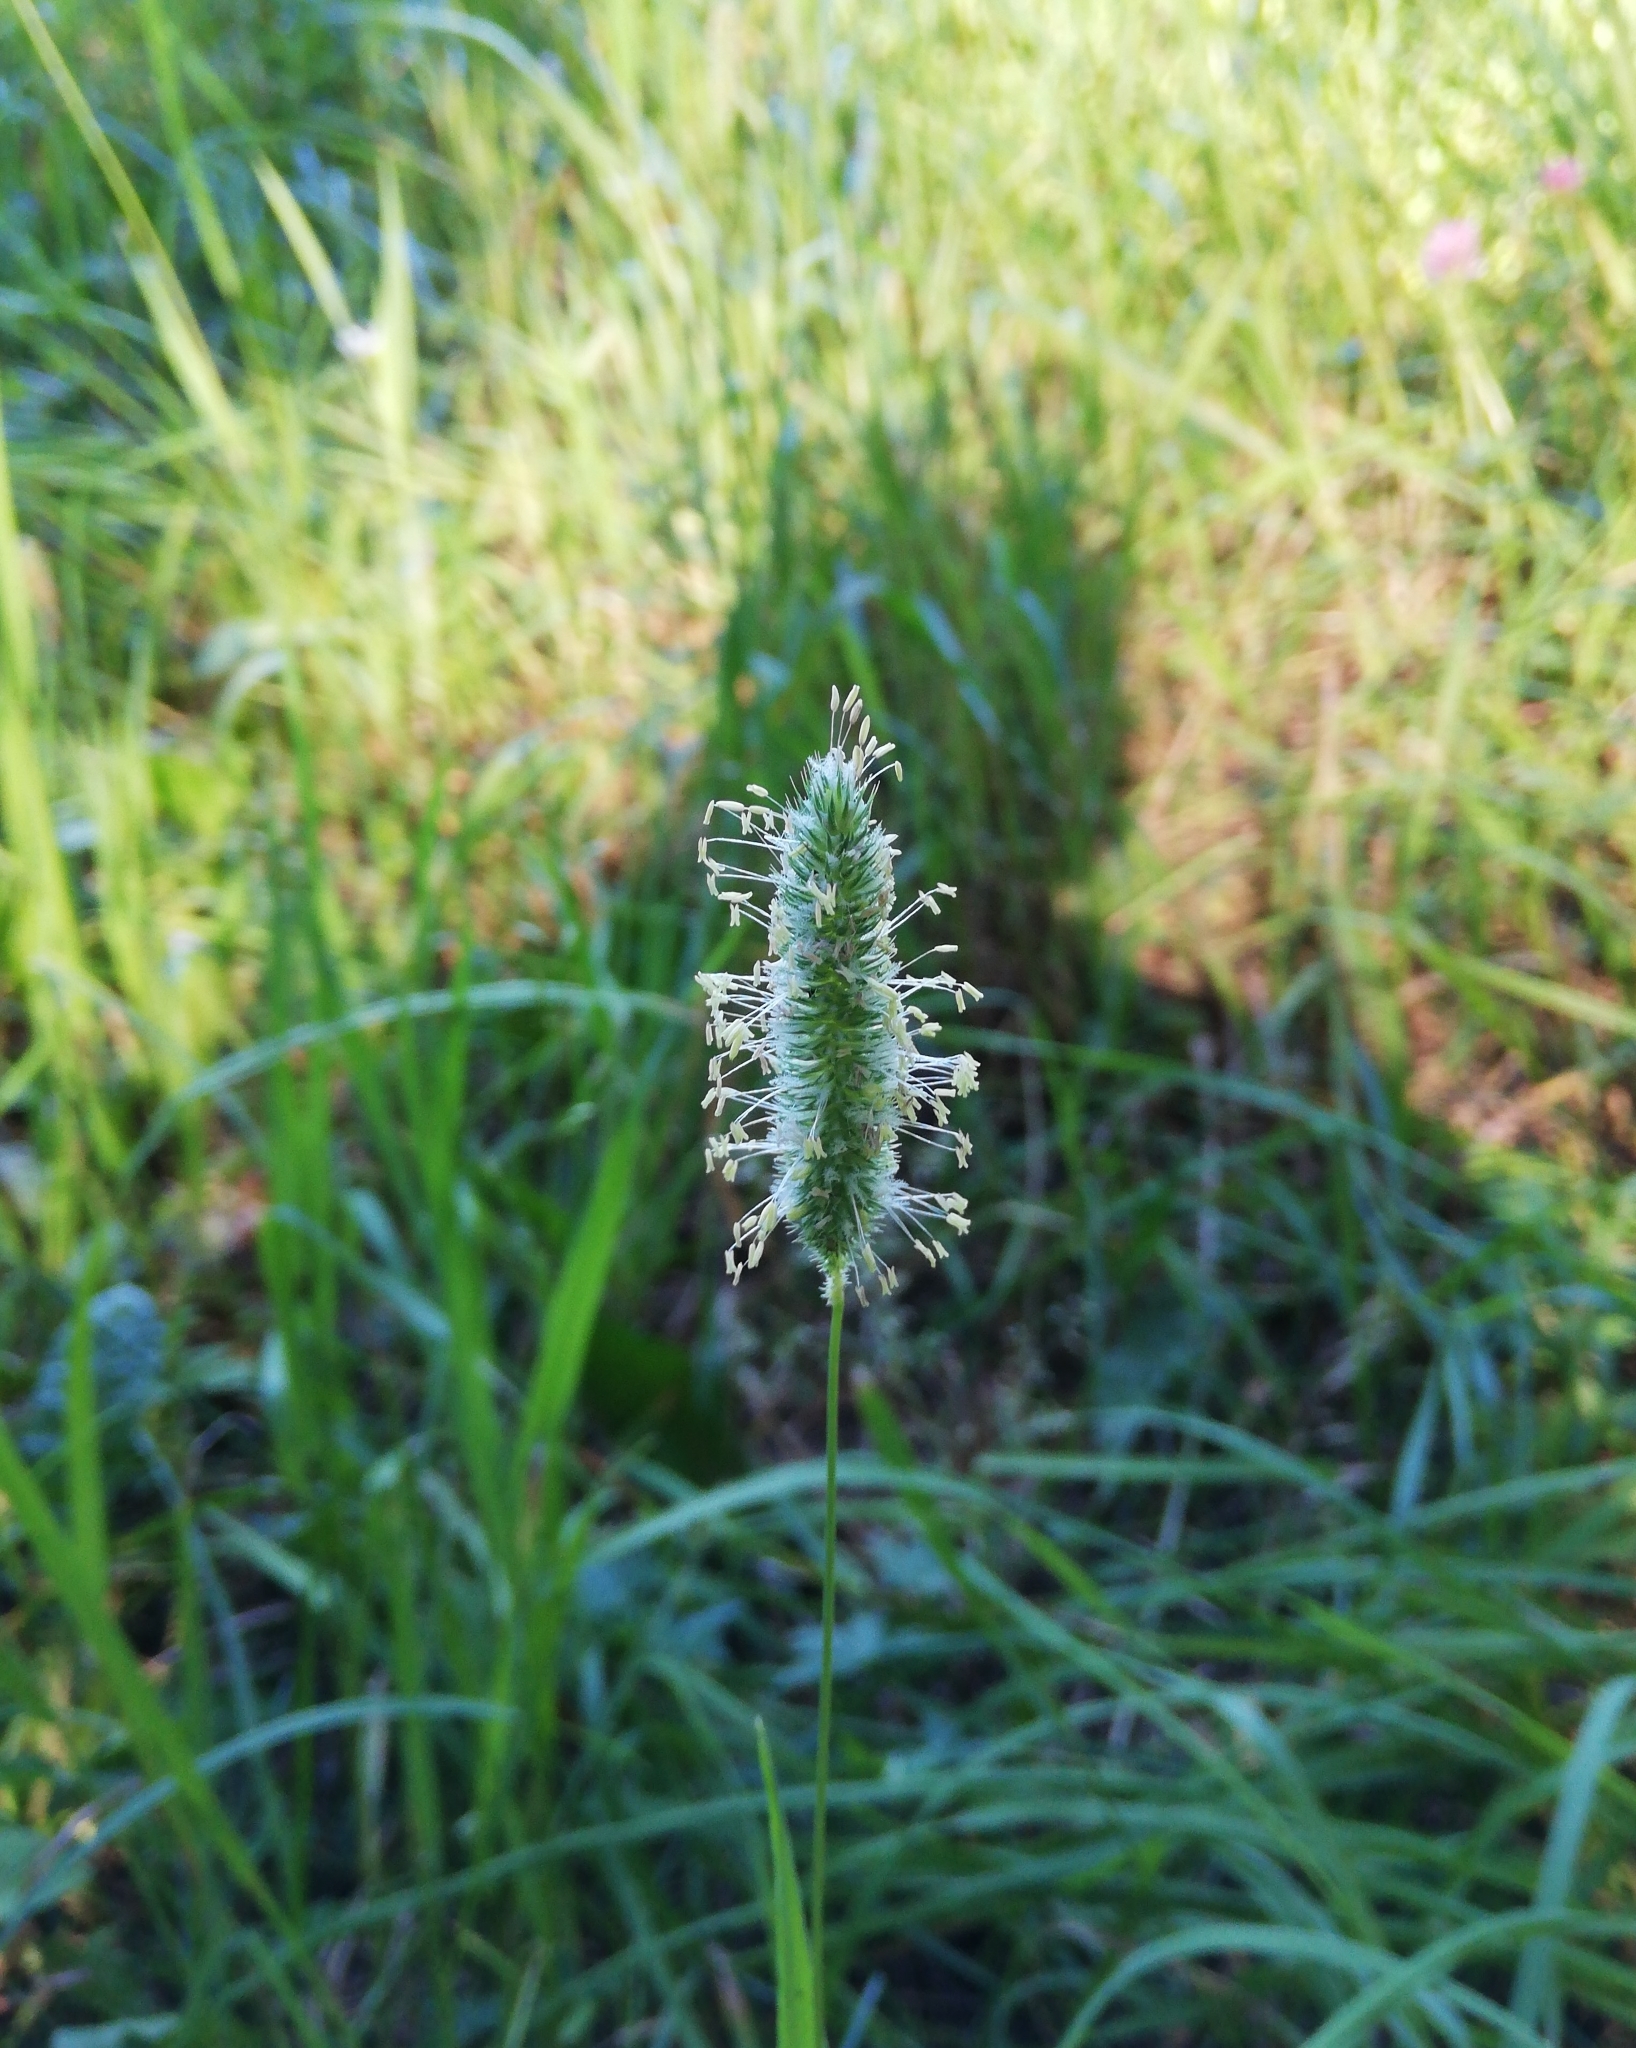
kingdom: Plantae
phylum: Tracheophyta
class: Liliopsida
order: Poales
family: Poaceae
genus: Phleum
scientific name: Phleum pratense
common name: Timothy grass
